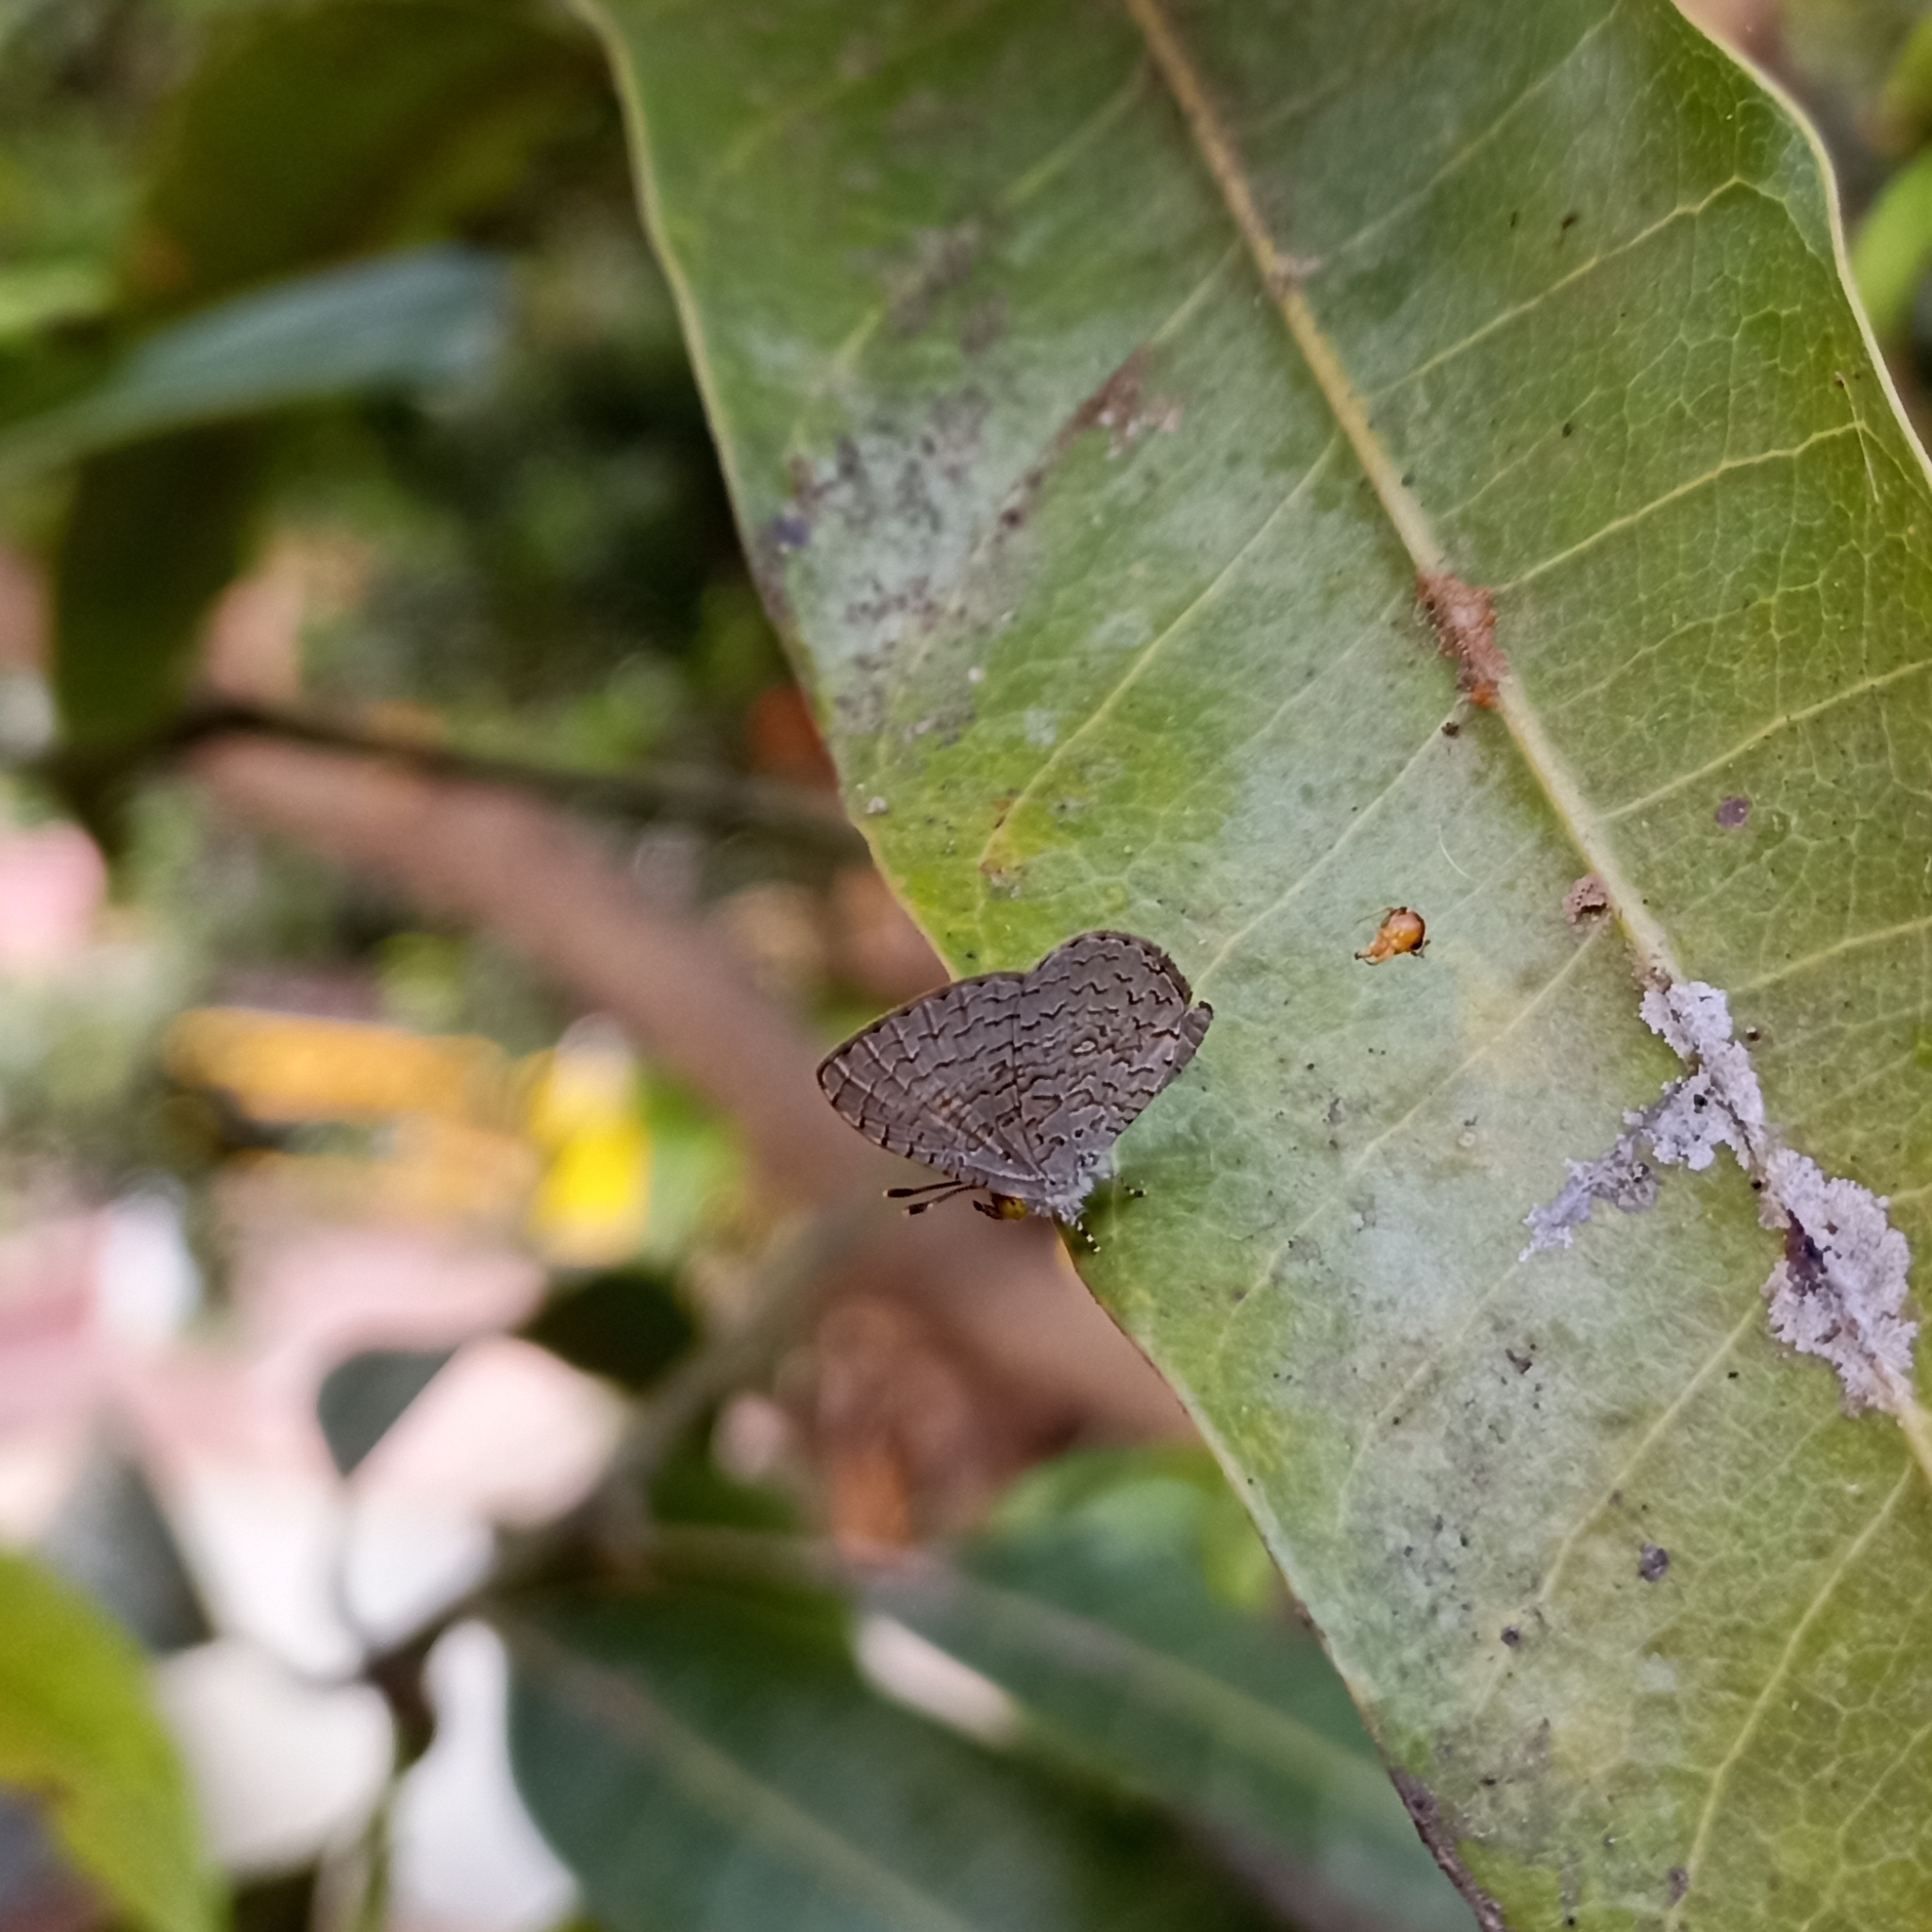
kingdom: Animalia
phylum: Arthropoda
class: Insecta
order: Lepidoptera
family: Lycaenidae
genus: Spalgis
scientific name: Spalgis epius
